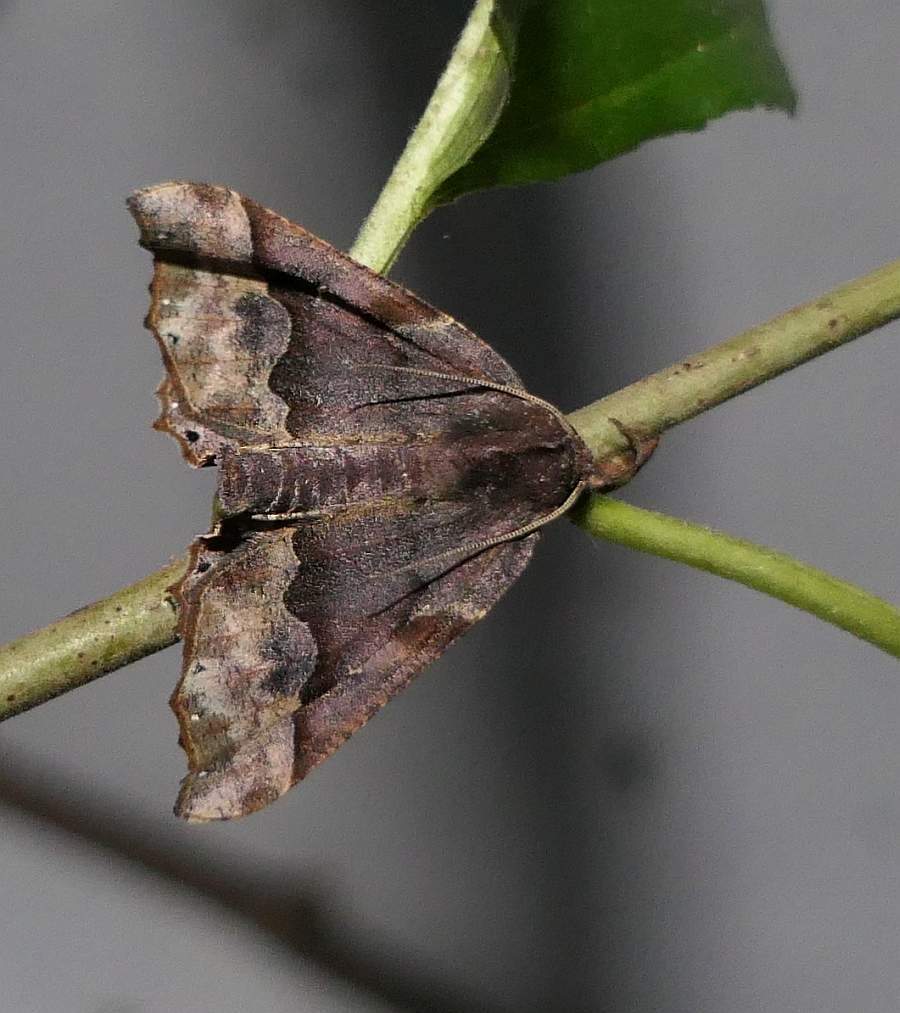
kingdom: Animalia
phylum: Arthropoda
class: Insecta
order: Lepidoptera
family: Geometridae
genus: Pero
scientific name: Pero ancetaria
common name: Hübner's pero
